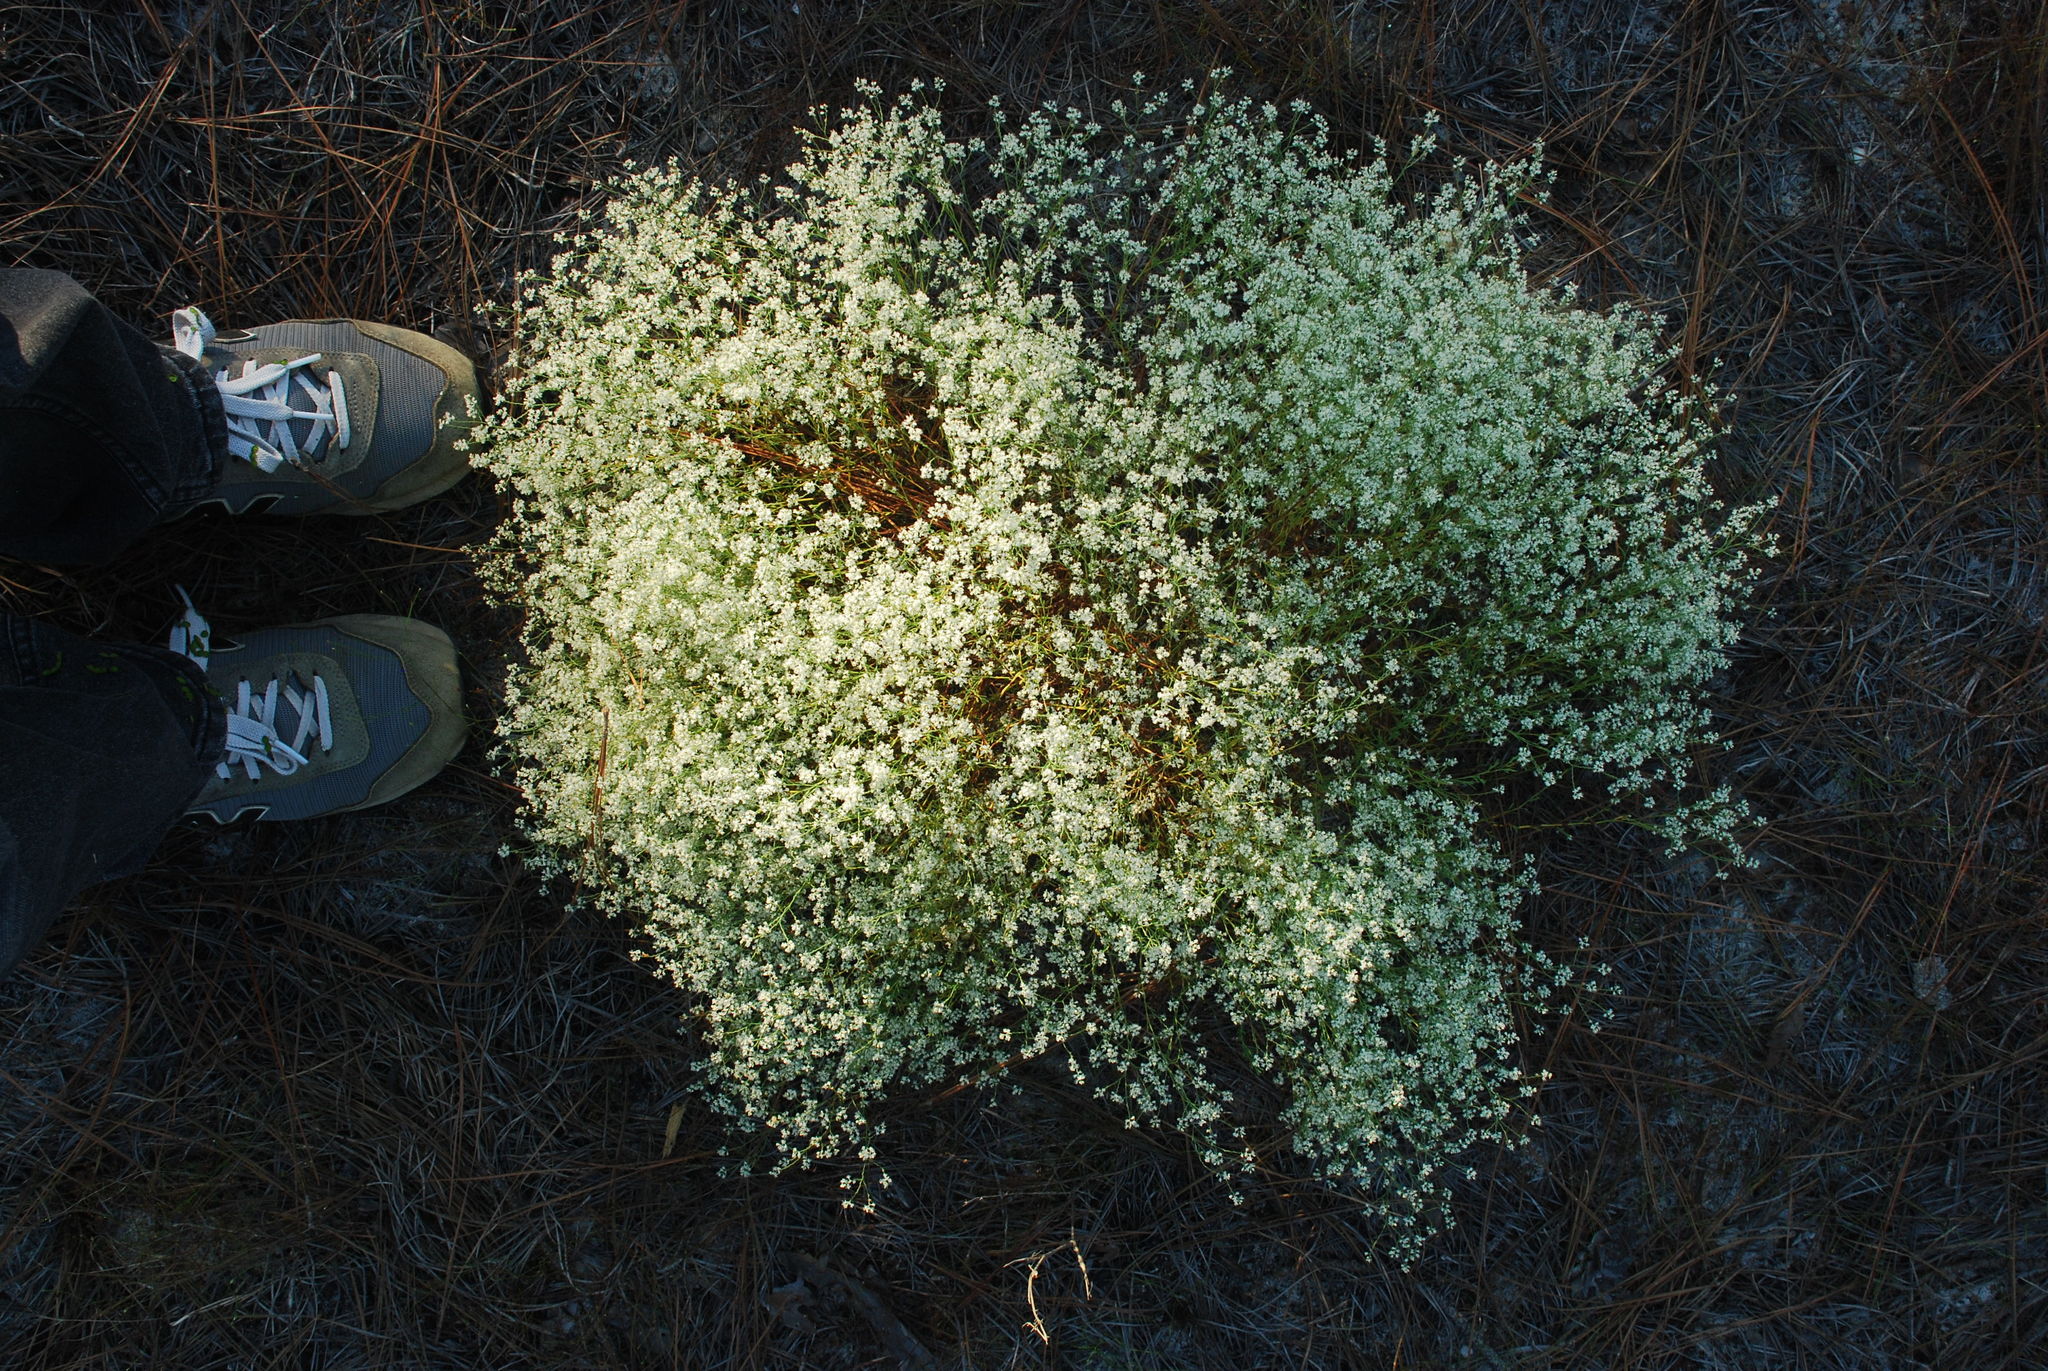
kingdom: Plantae
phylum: Tracheophyta
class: Magnoliopsida
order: Caryophyllales
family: Polygonaceae
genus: Polygonella
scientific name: Polygonella polygama
